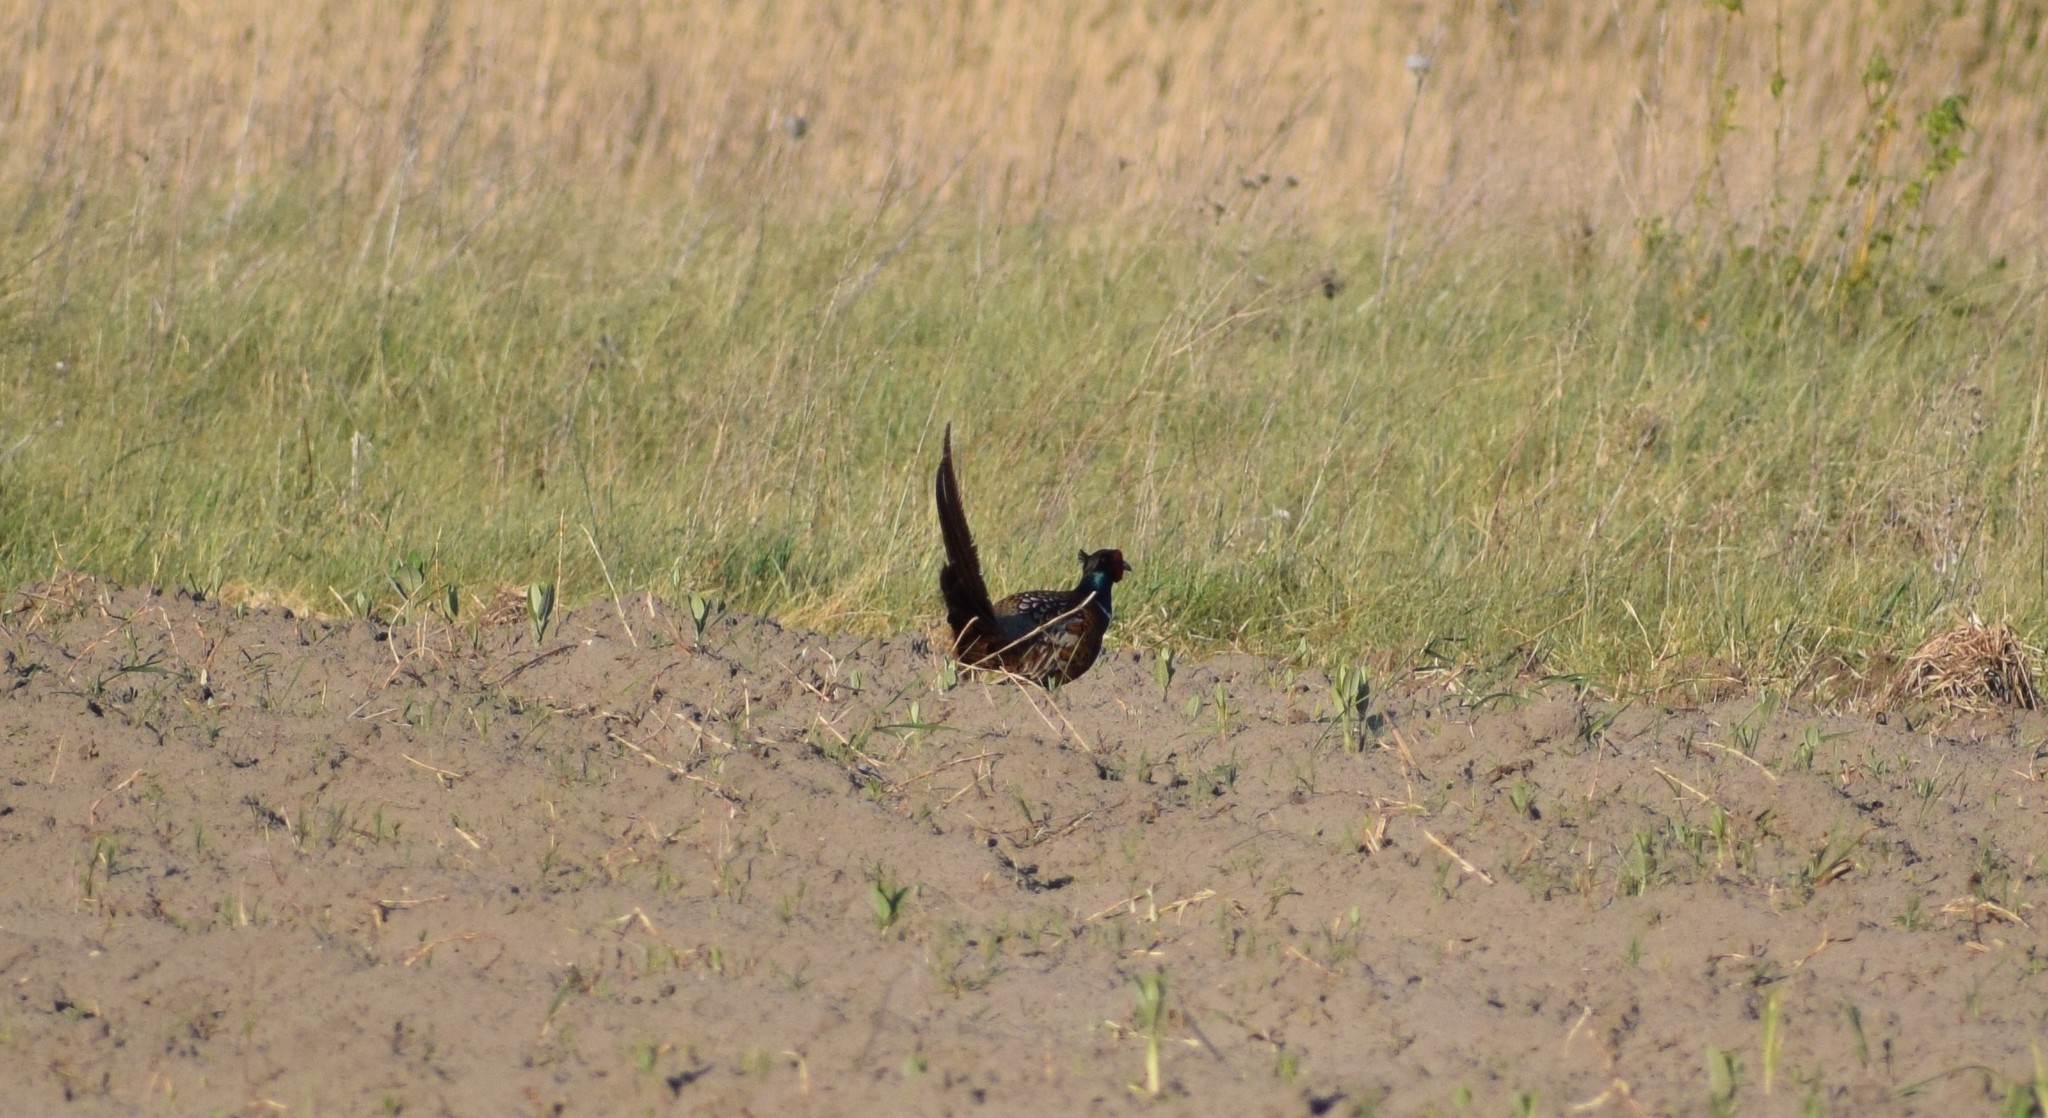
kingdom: Animalia
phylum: Chordata
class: Aves
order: Galliformes
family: Phasianidae
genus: Phasianus
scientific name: Phasianus colchicus
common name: Common pheasant
